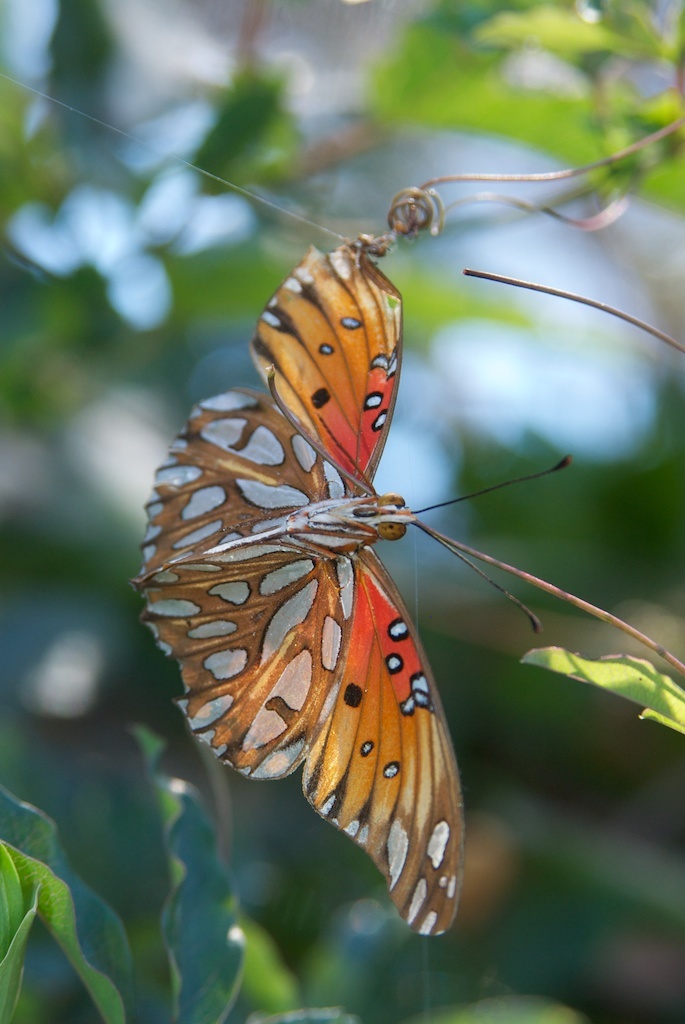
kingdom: Animalia
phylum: Arthropoda
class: Insecta
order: Lepidoptera
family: Nymphalidae
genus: Dione
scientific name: Dione vanillae
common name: Gulf fritillary
